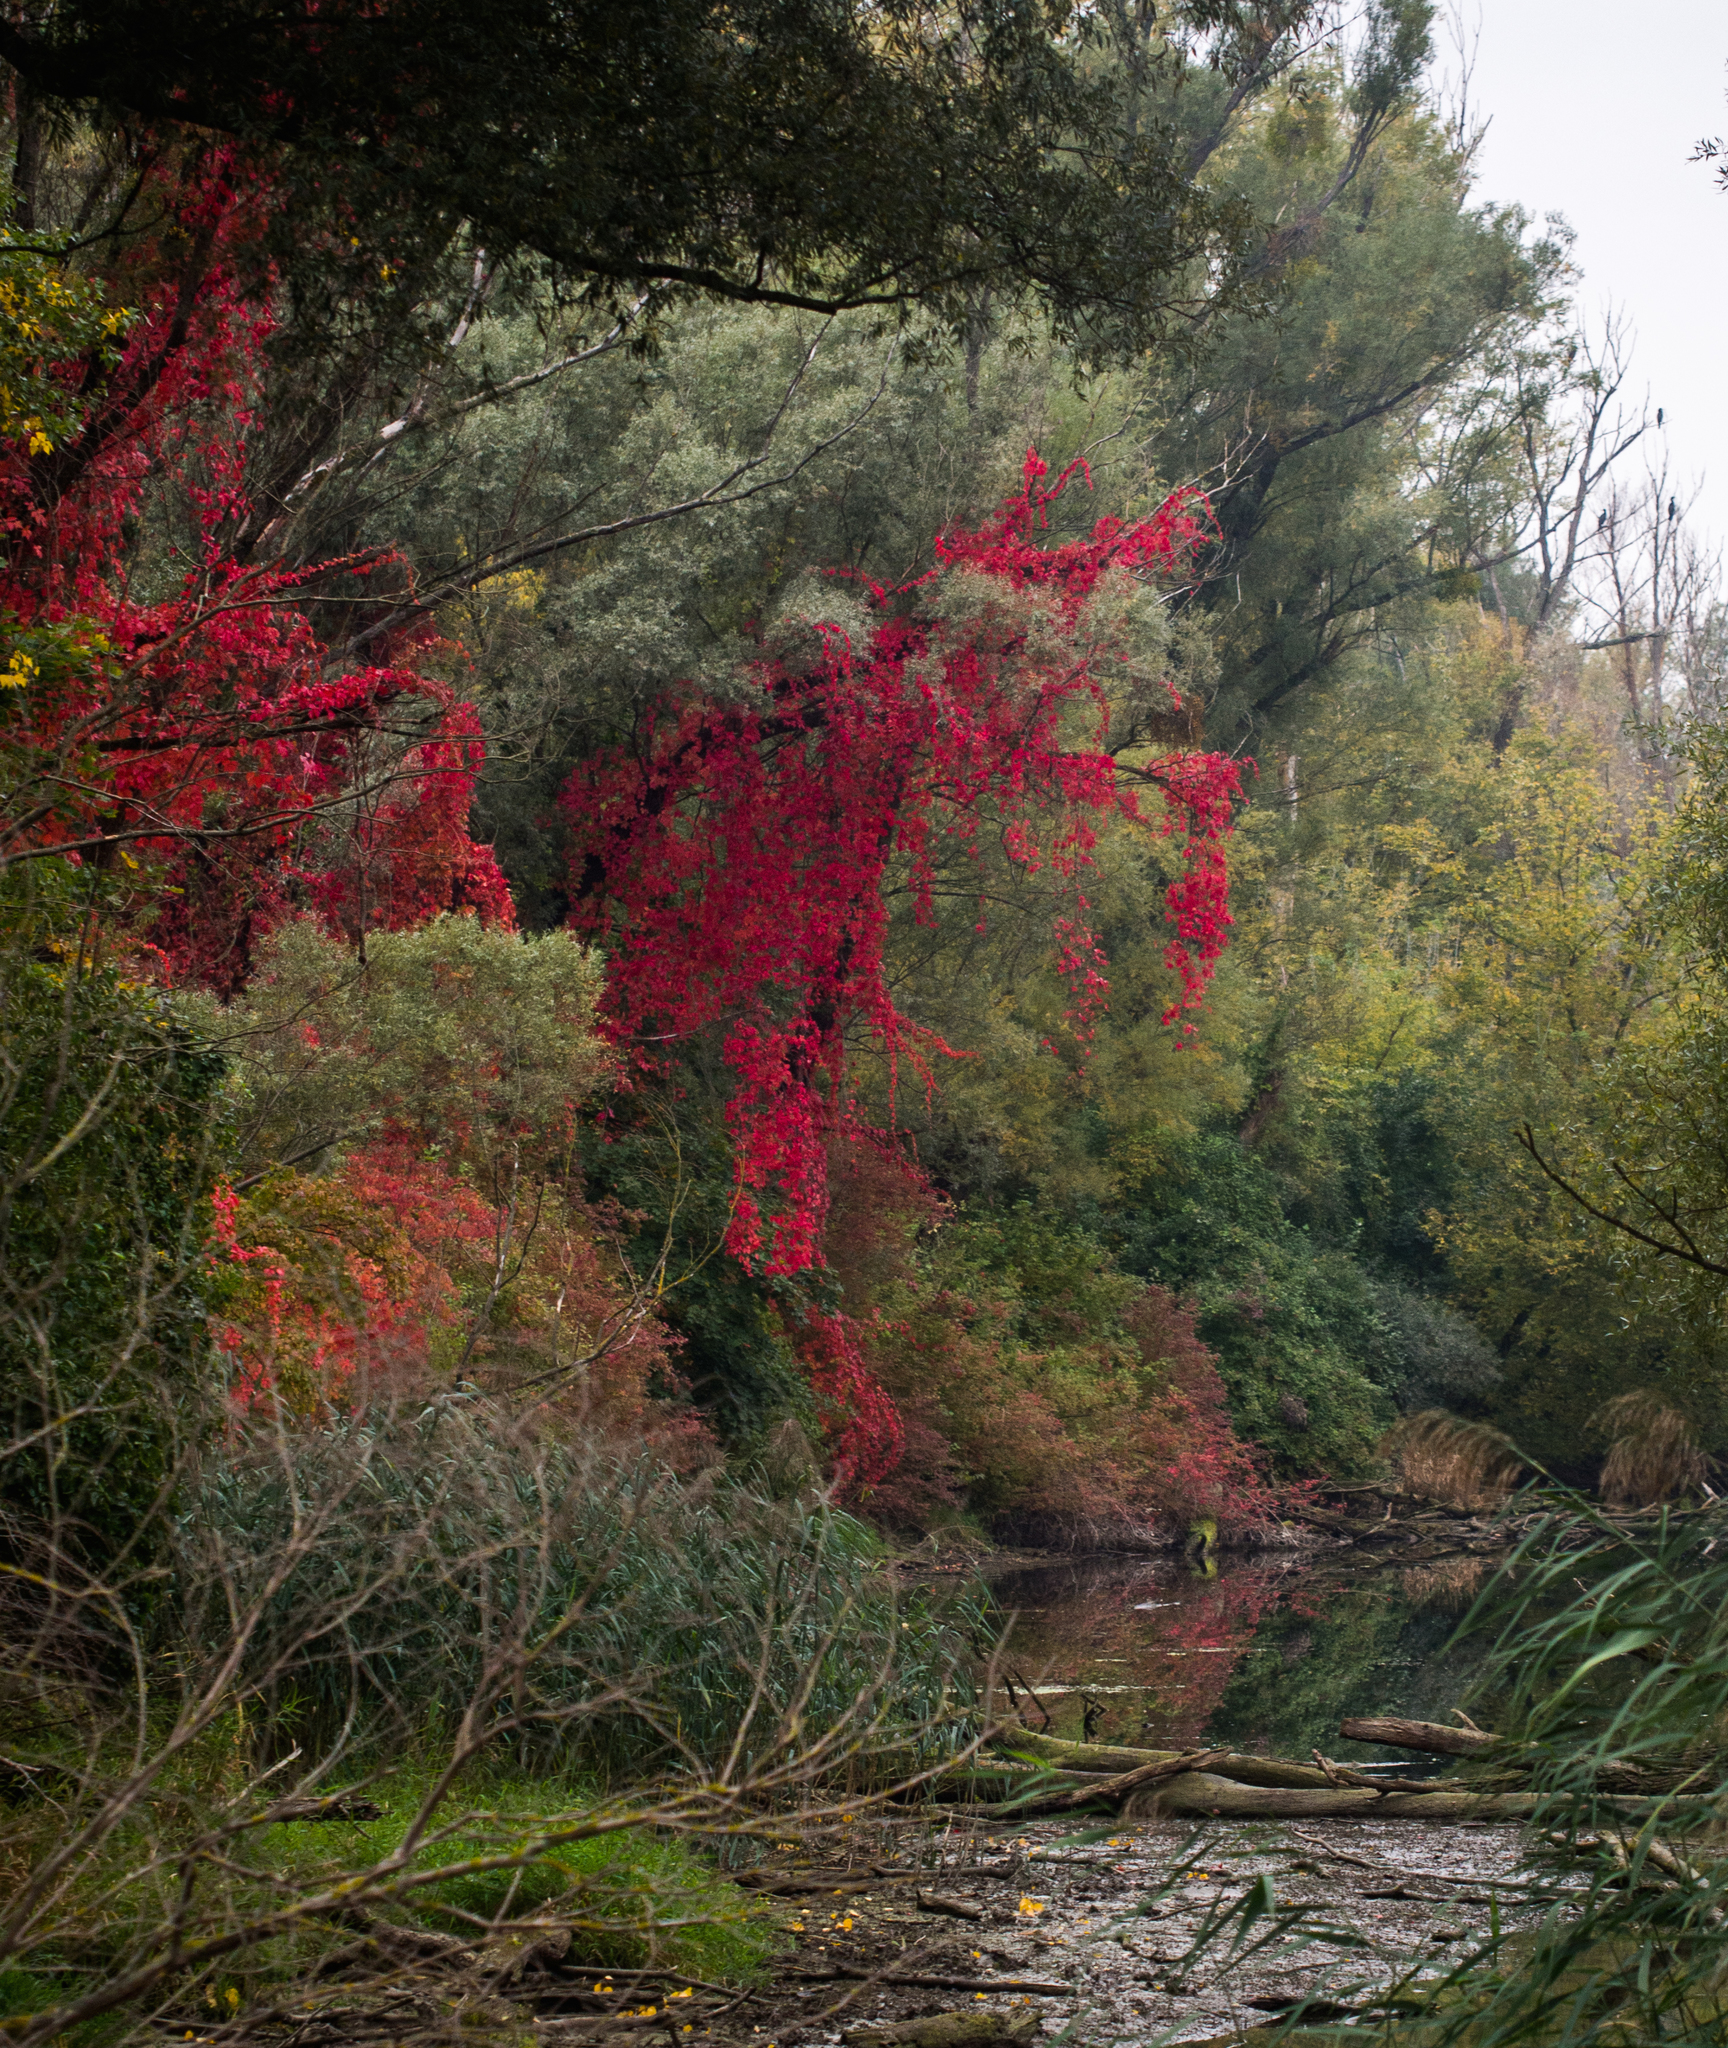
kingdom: Plantae
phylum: Tracheophyta
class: Magnoliopsida
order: Vitales
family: Vitaceae
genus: Parthenocissus
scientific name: Parthenocissus inserta
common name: False virginia-creeper
